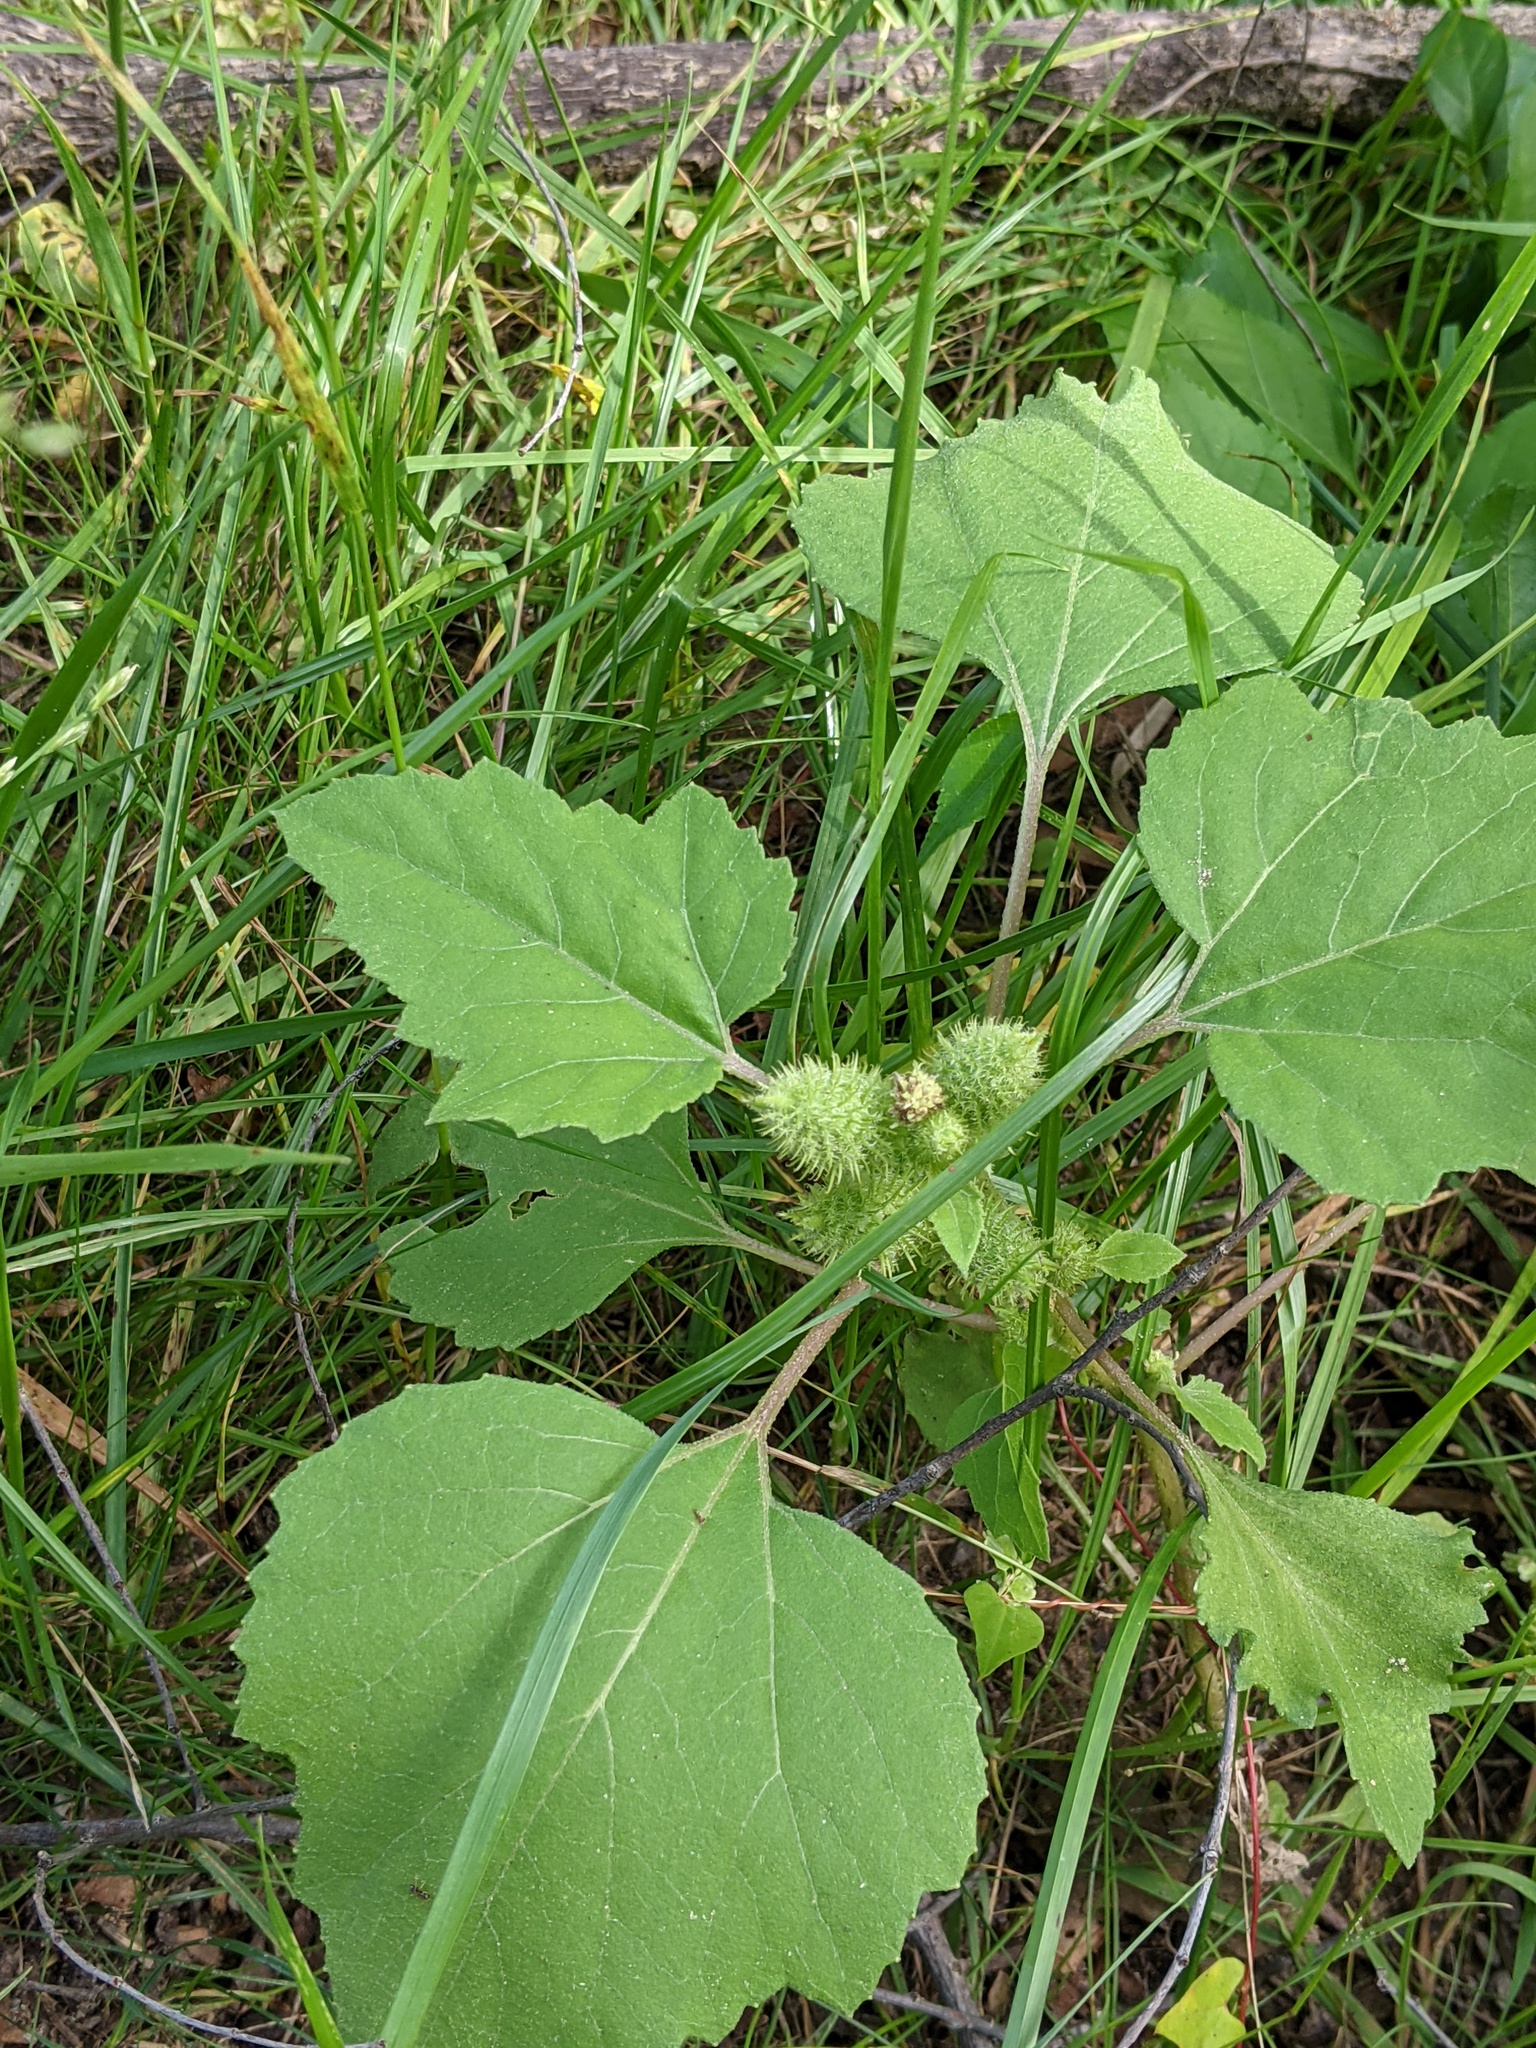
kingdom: Plantae
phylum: Tracheophyta
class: Magnoliopsida
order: Asterales
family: Asteraceae
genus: Xanthium
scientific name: Xanthium strumarium
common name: Rough cocklebur
